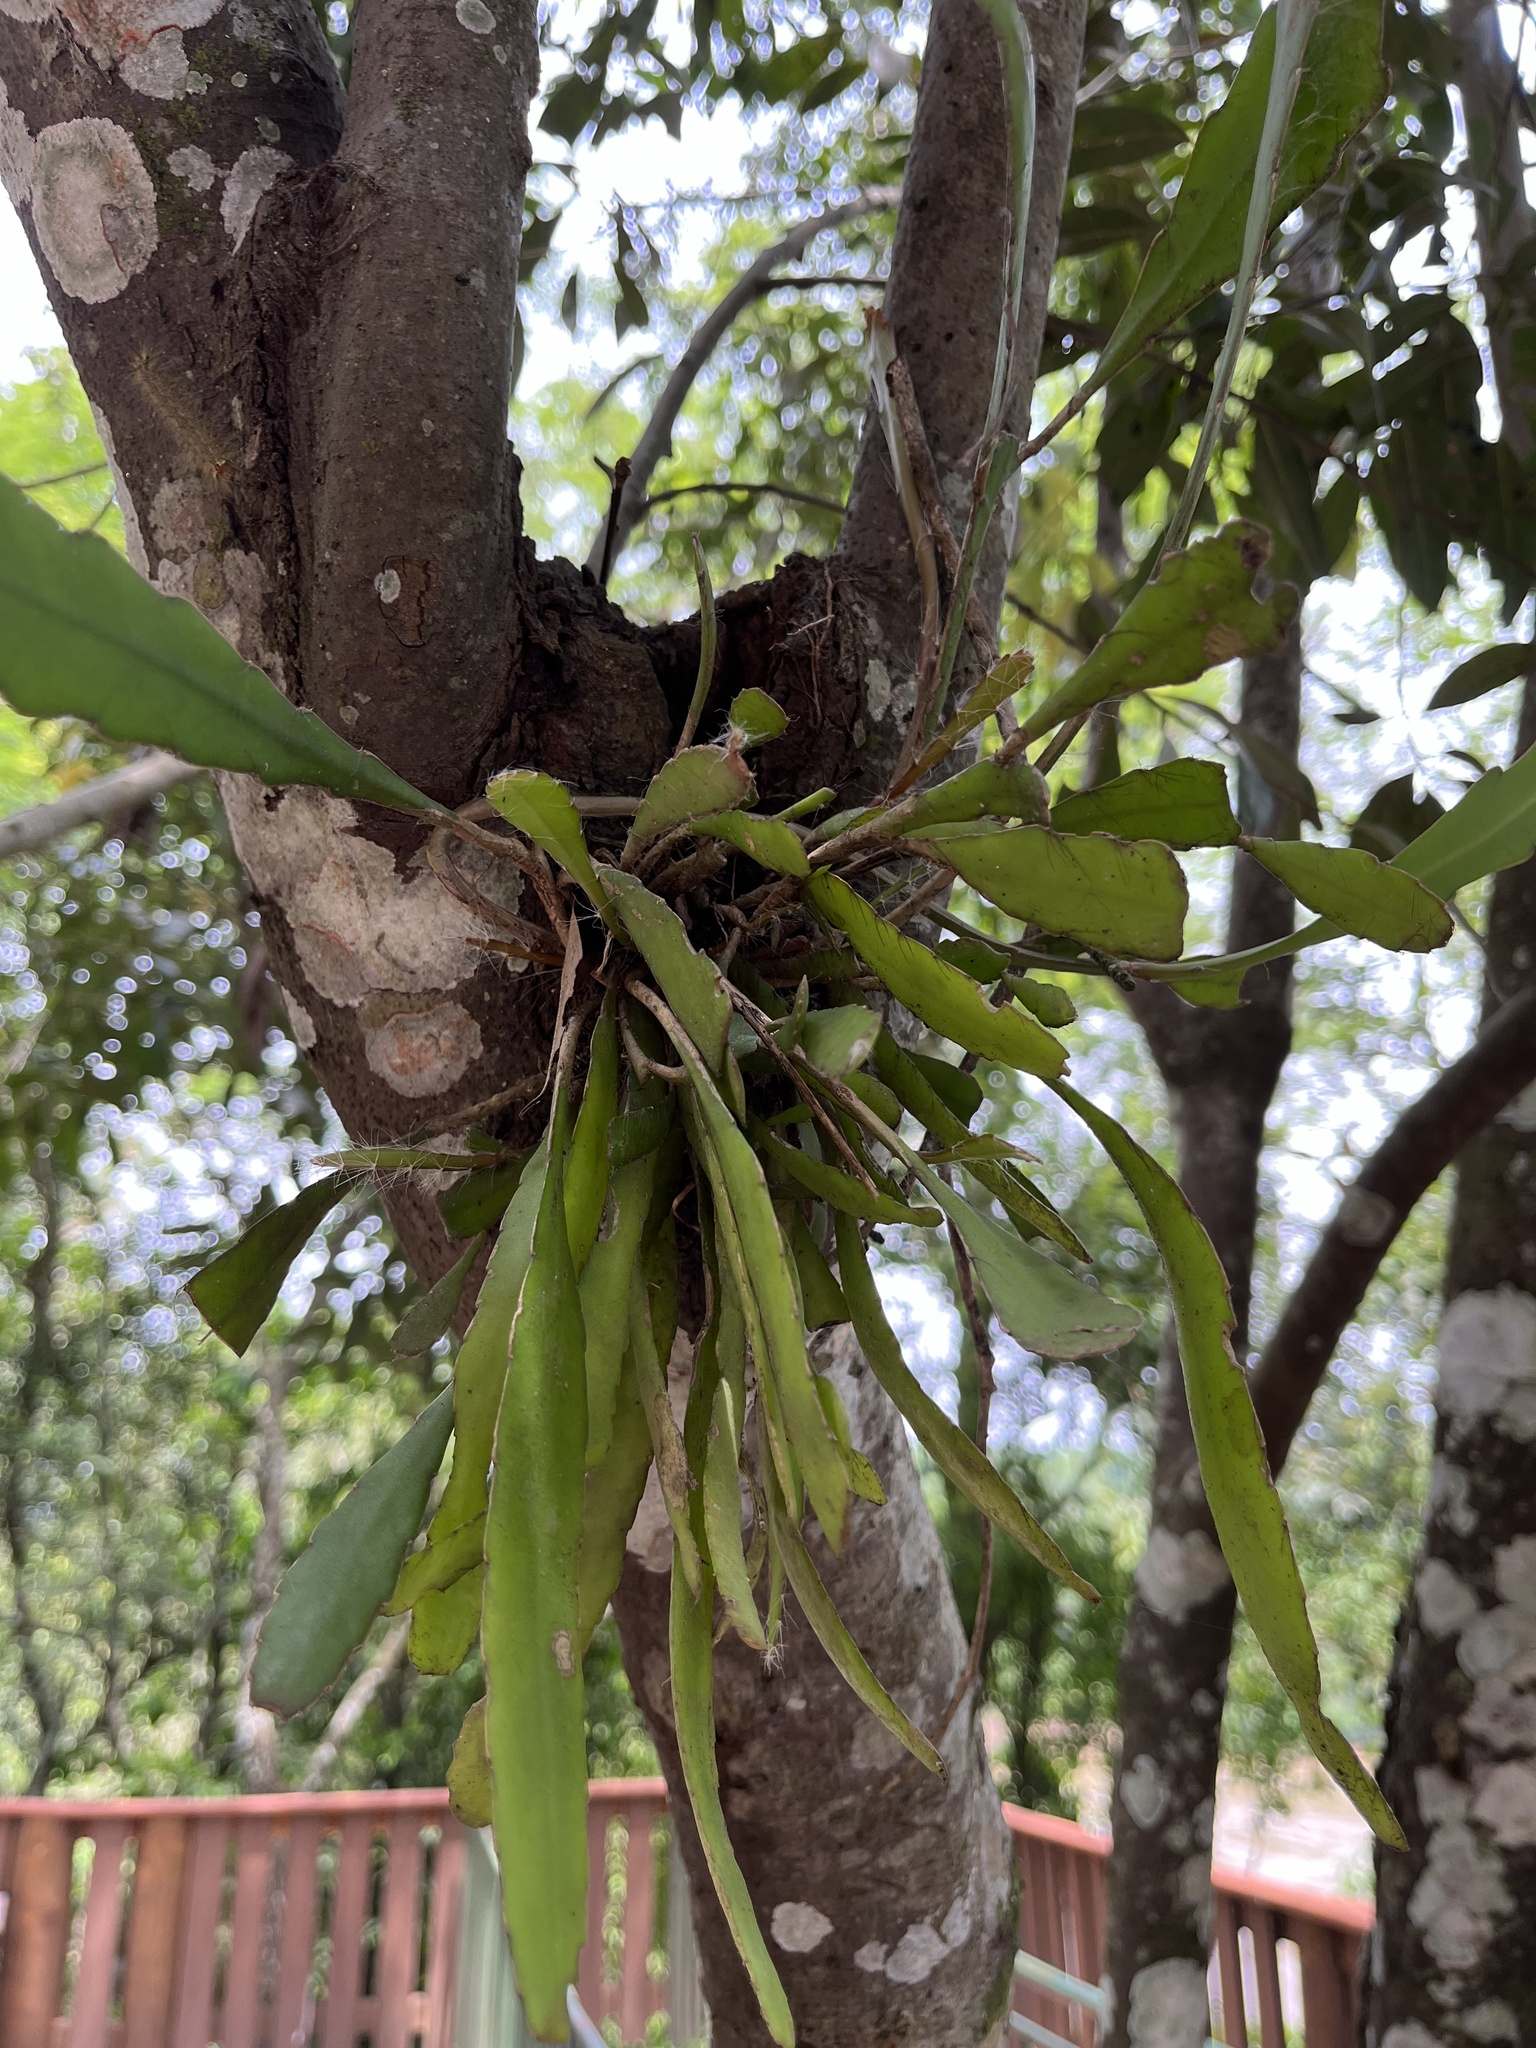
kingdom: Plantae
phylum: Tracheophyta
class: Magnoliopsida
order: Caryophyllales
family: Cactaceae
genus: Epiphyllum
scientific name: Epiphyllum phyllanthus
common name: Climbing cactus
